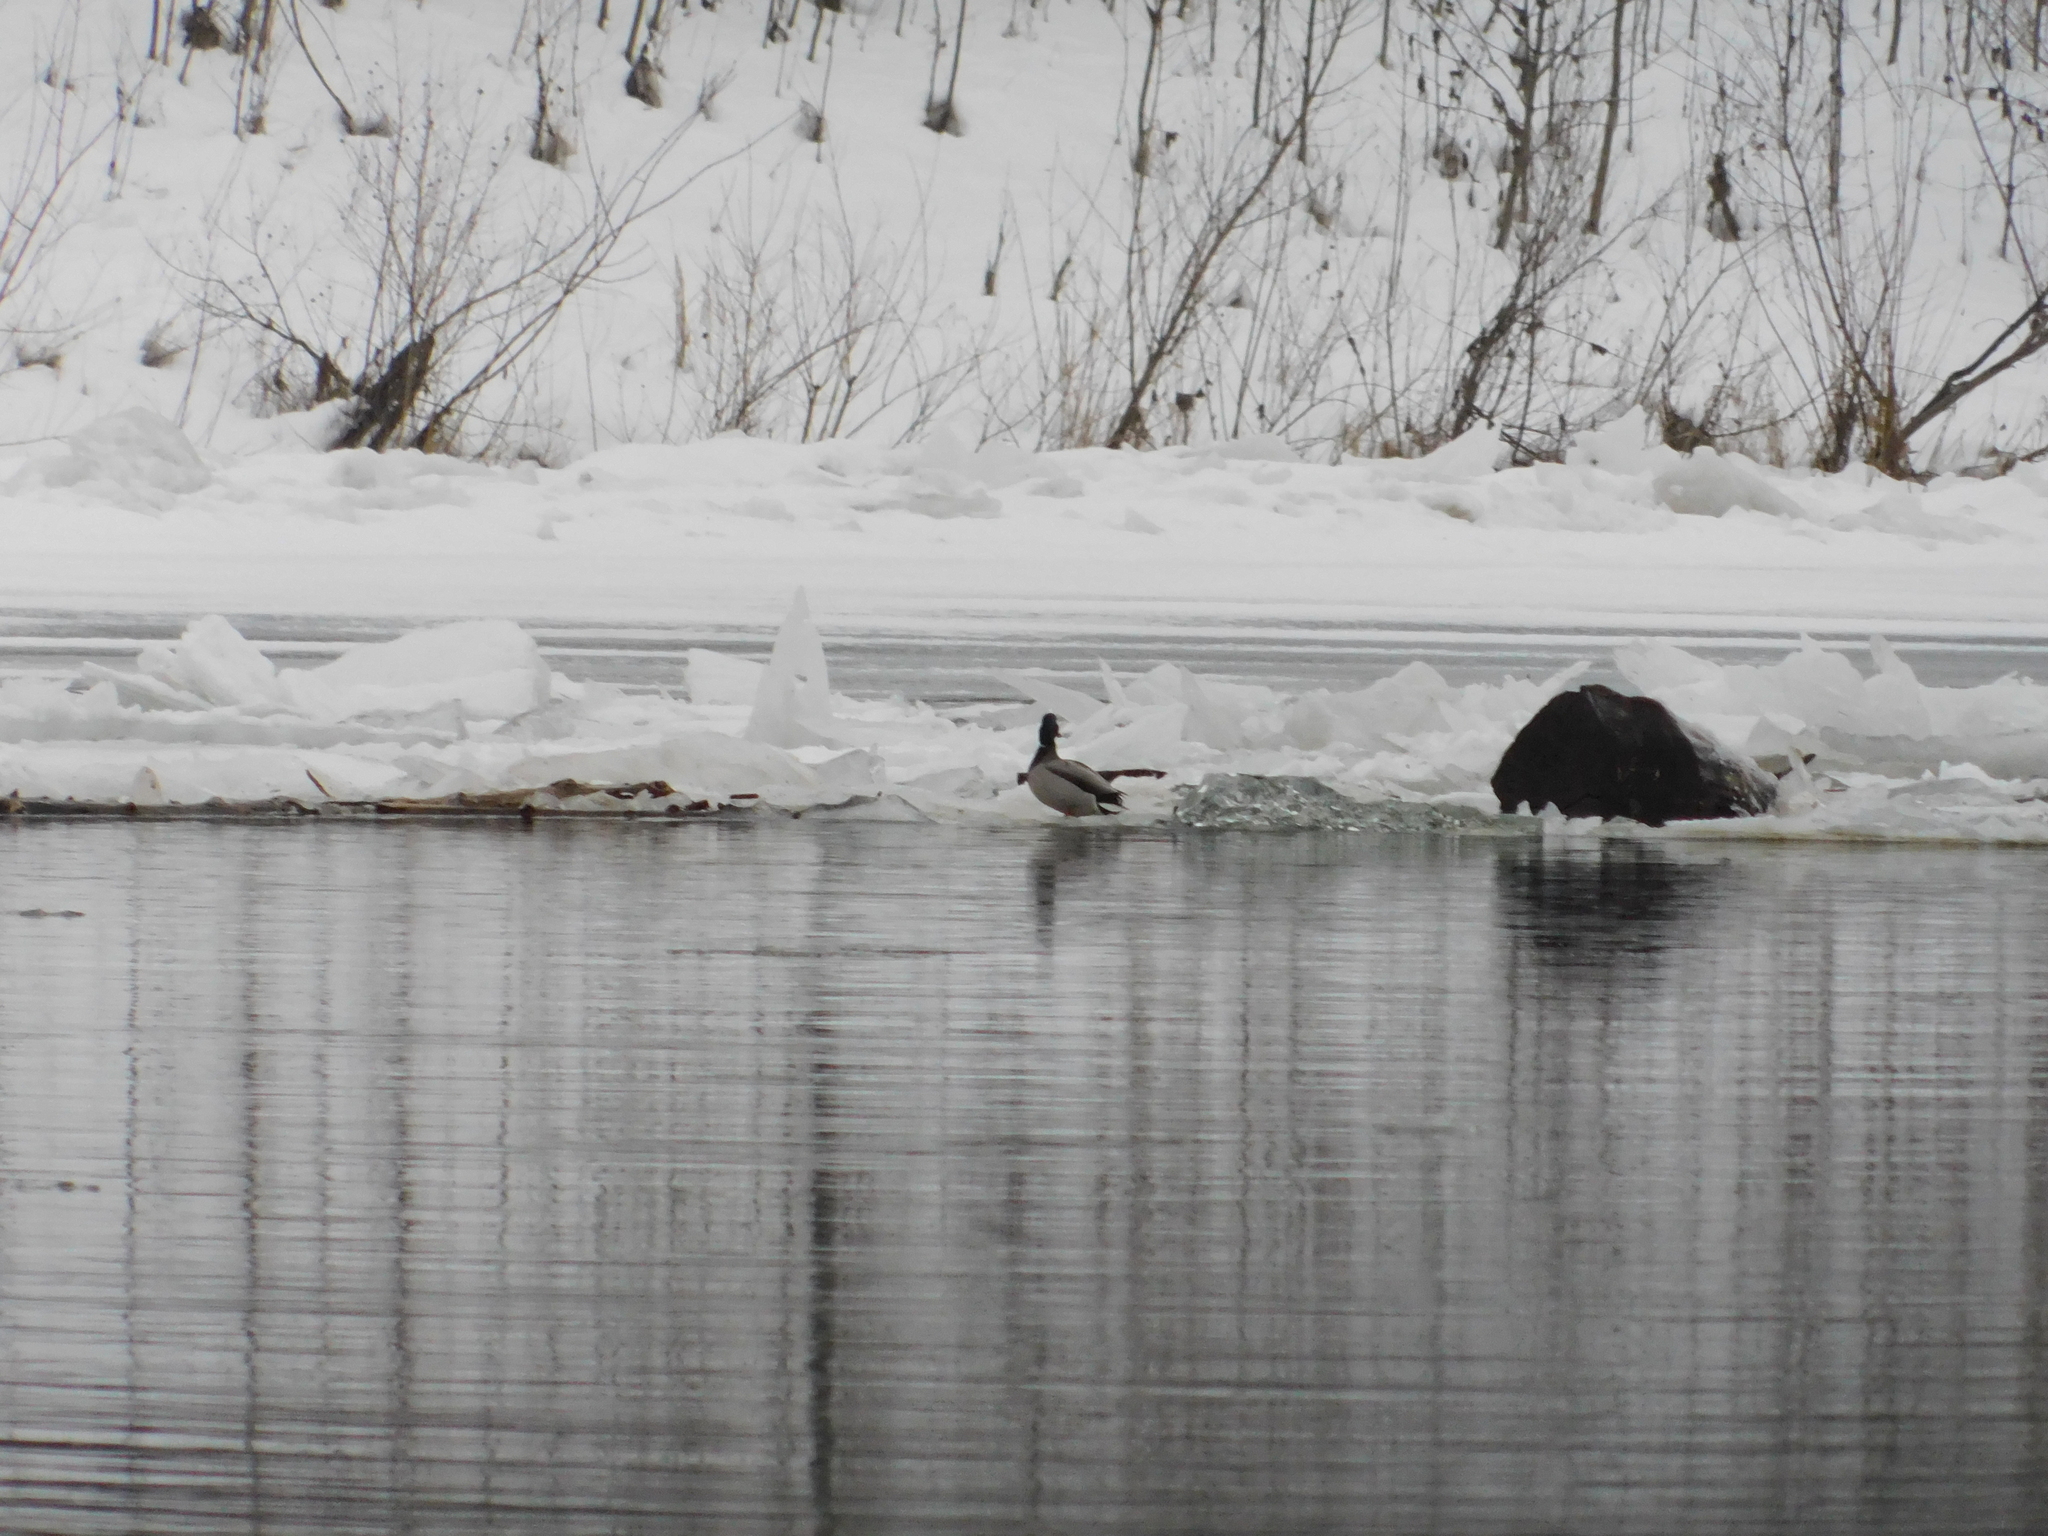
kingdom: Animalia
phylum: Chordata
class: Aves
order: Anseriformes
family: Anatidae
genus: Anas
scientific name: Anas platyrhynchos
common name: Mallard
